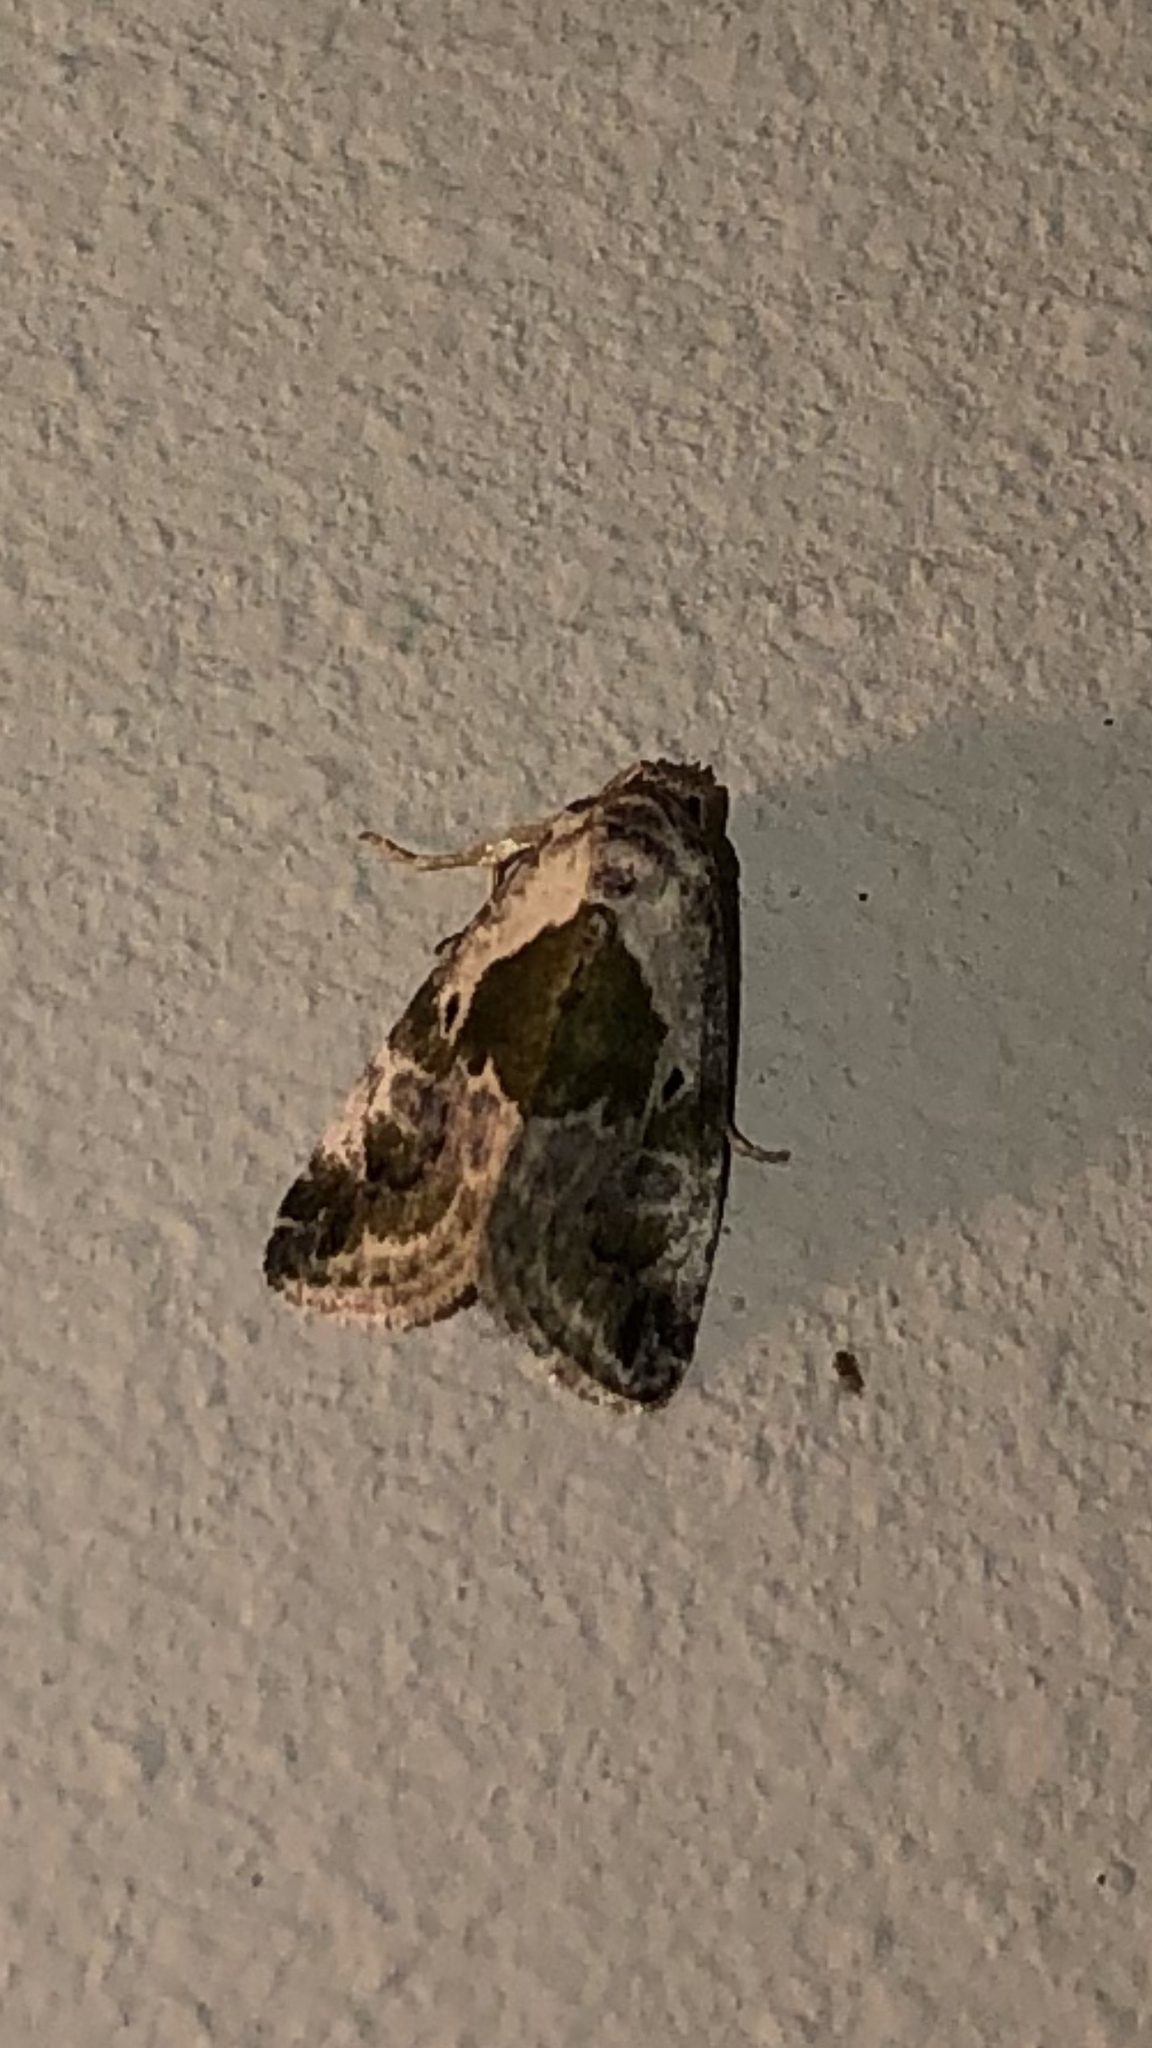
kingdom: Animalia
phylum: Arthropoda
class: Insecta
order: Lepidoptera
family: Noctuidae
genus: Maliattha
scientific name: Maliattha synochitis
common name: Black-dotted glyph
